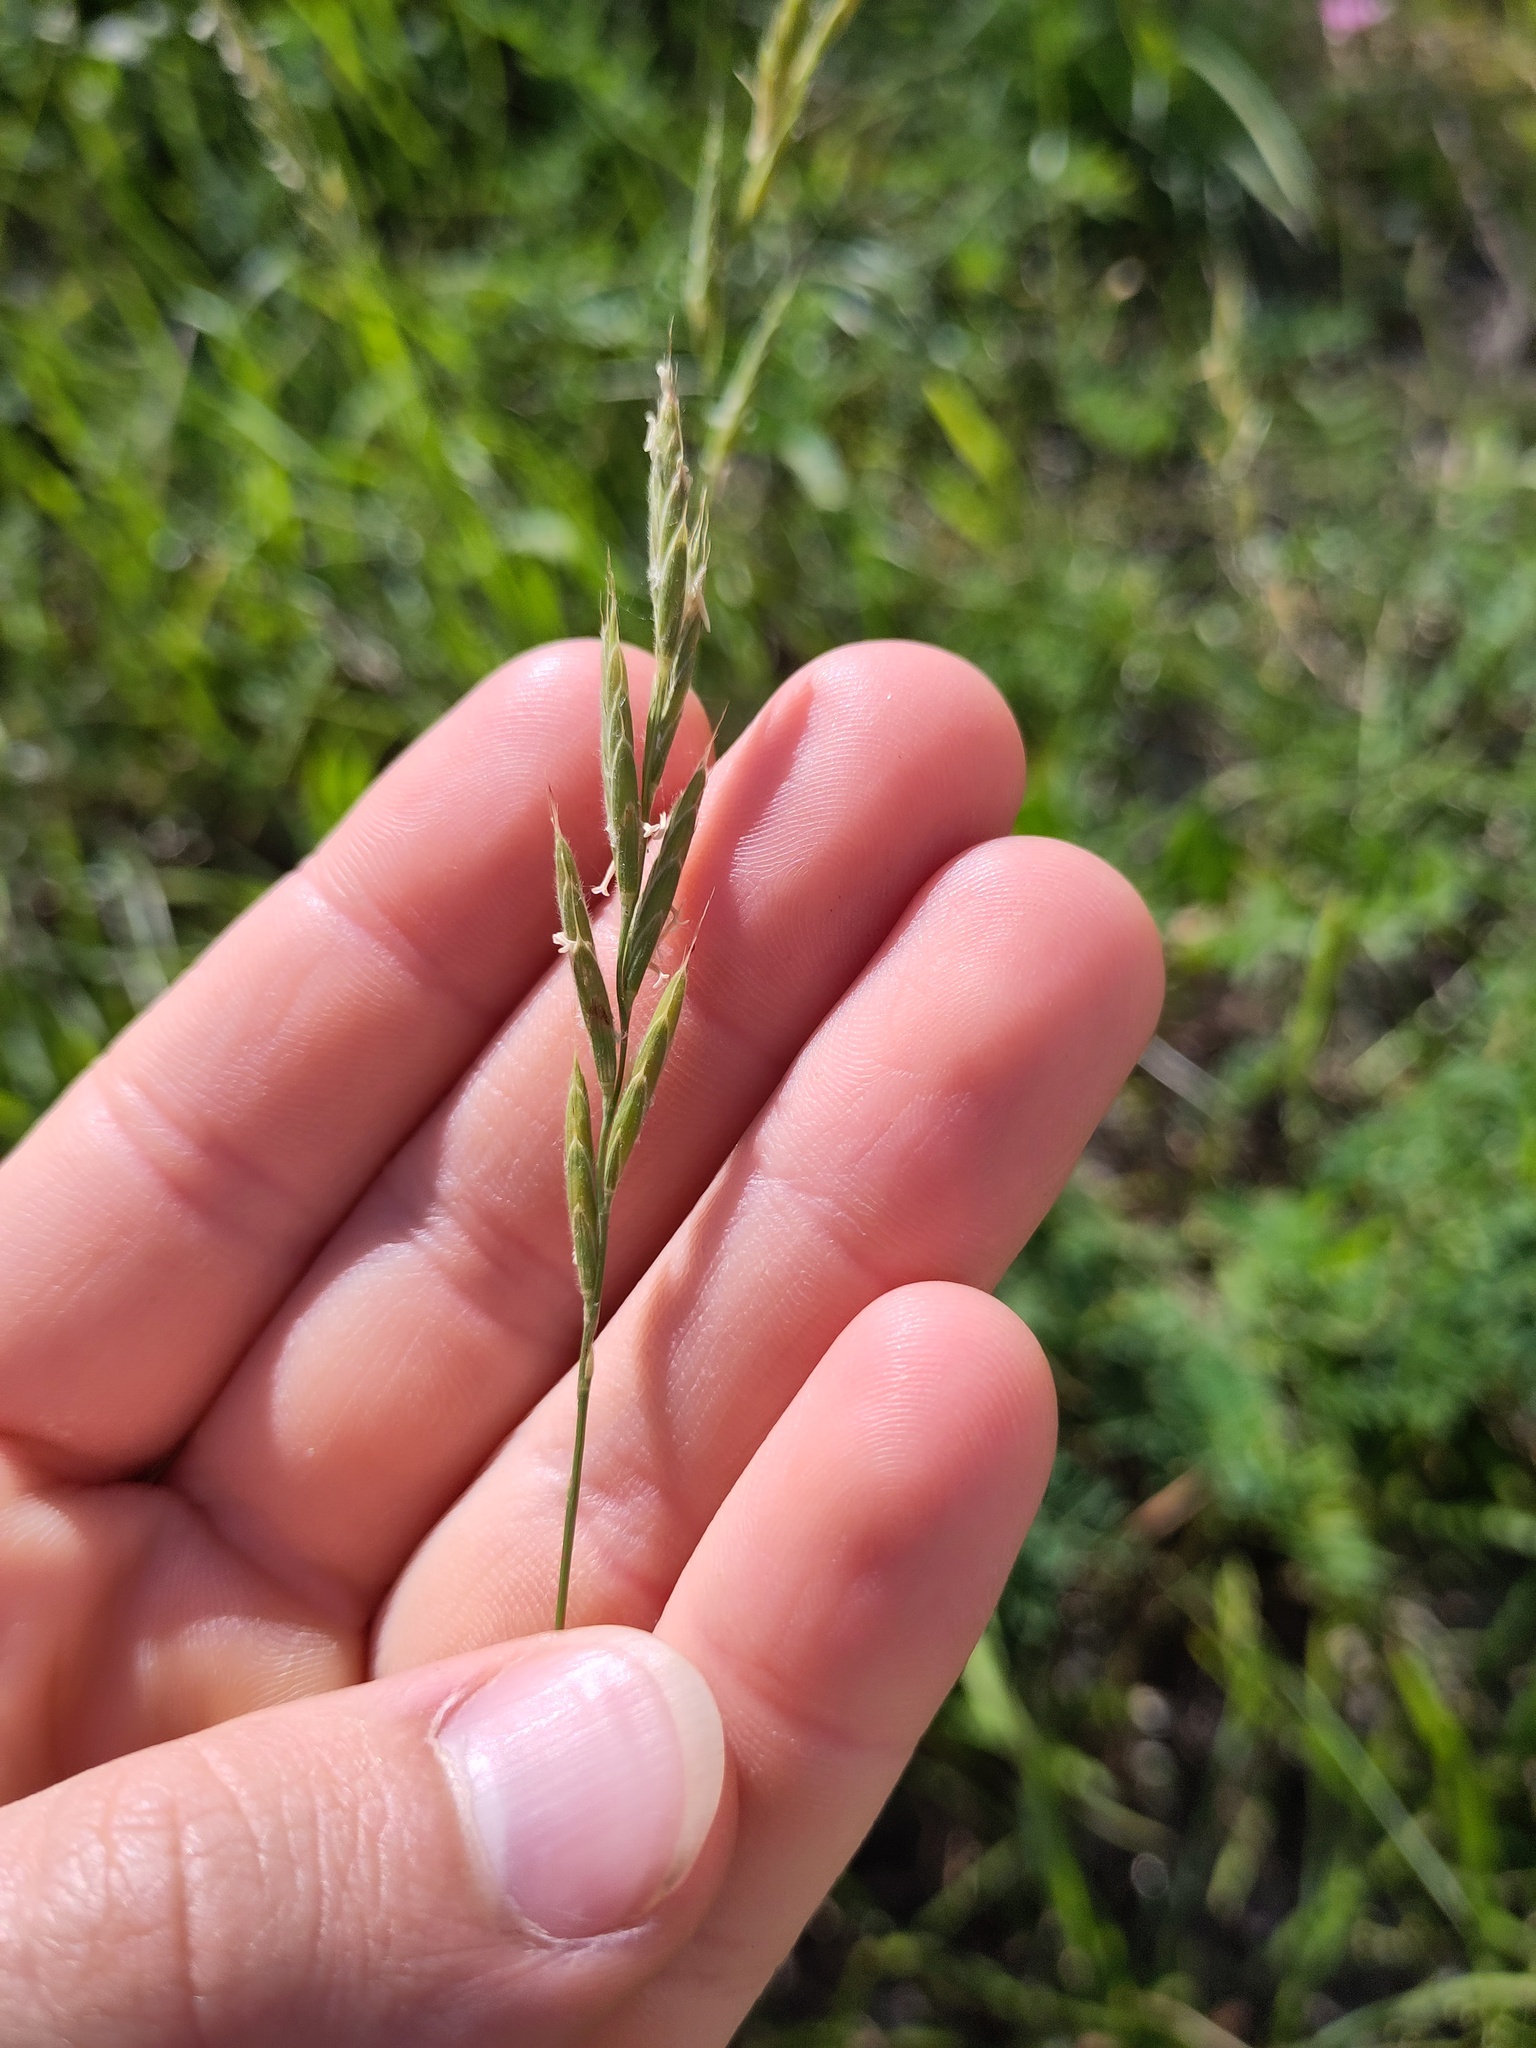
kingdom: Plantae
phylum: Tracheophyta
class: Liliopsida
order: Poales
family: Poaceae
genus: Brachypodium
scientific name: Brachypodium pinnatum
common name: Tor grass
